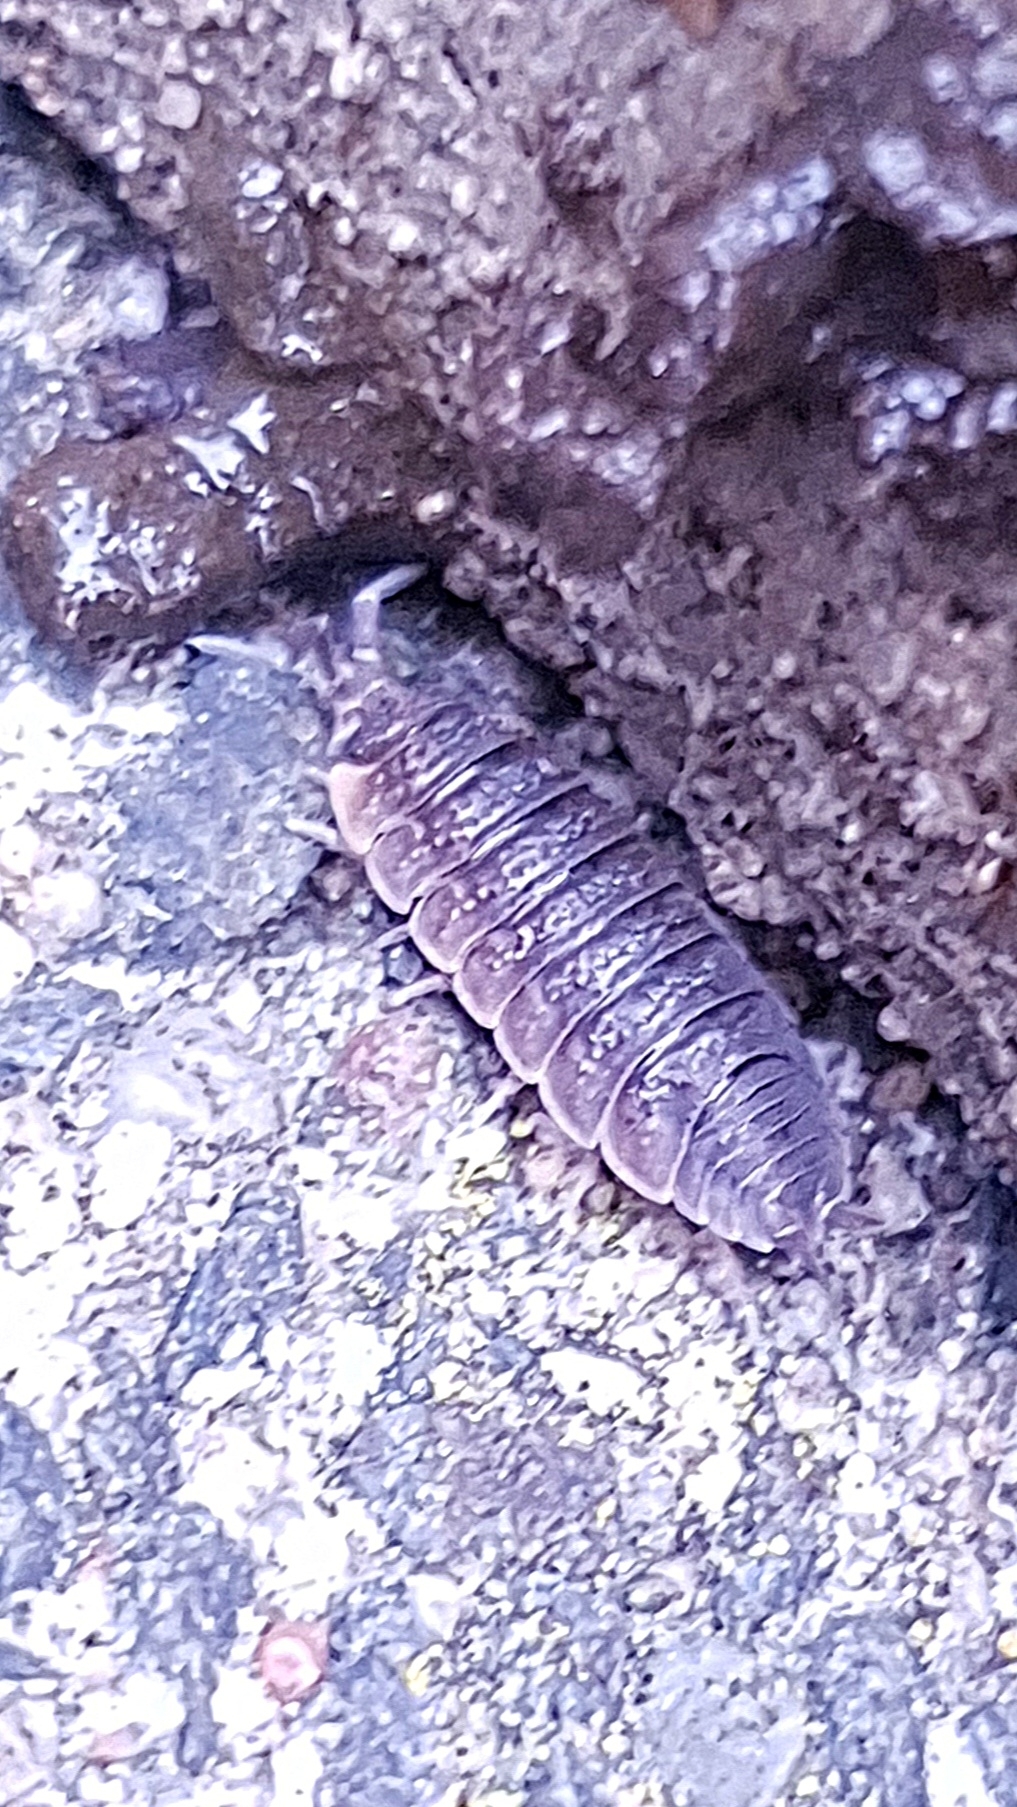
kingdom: Animalia
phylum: Arthropoda
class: Malacostraca
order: Isopoda
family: Porcellionidae
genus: Porcellio
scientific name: Porcellio scaber
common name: Common rough woodlouse
